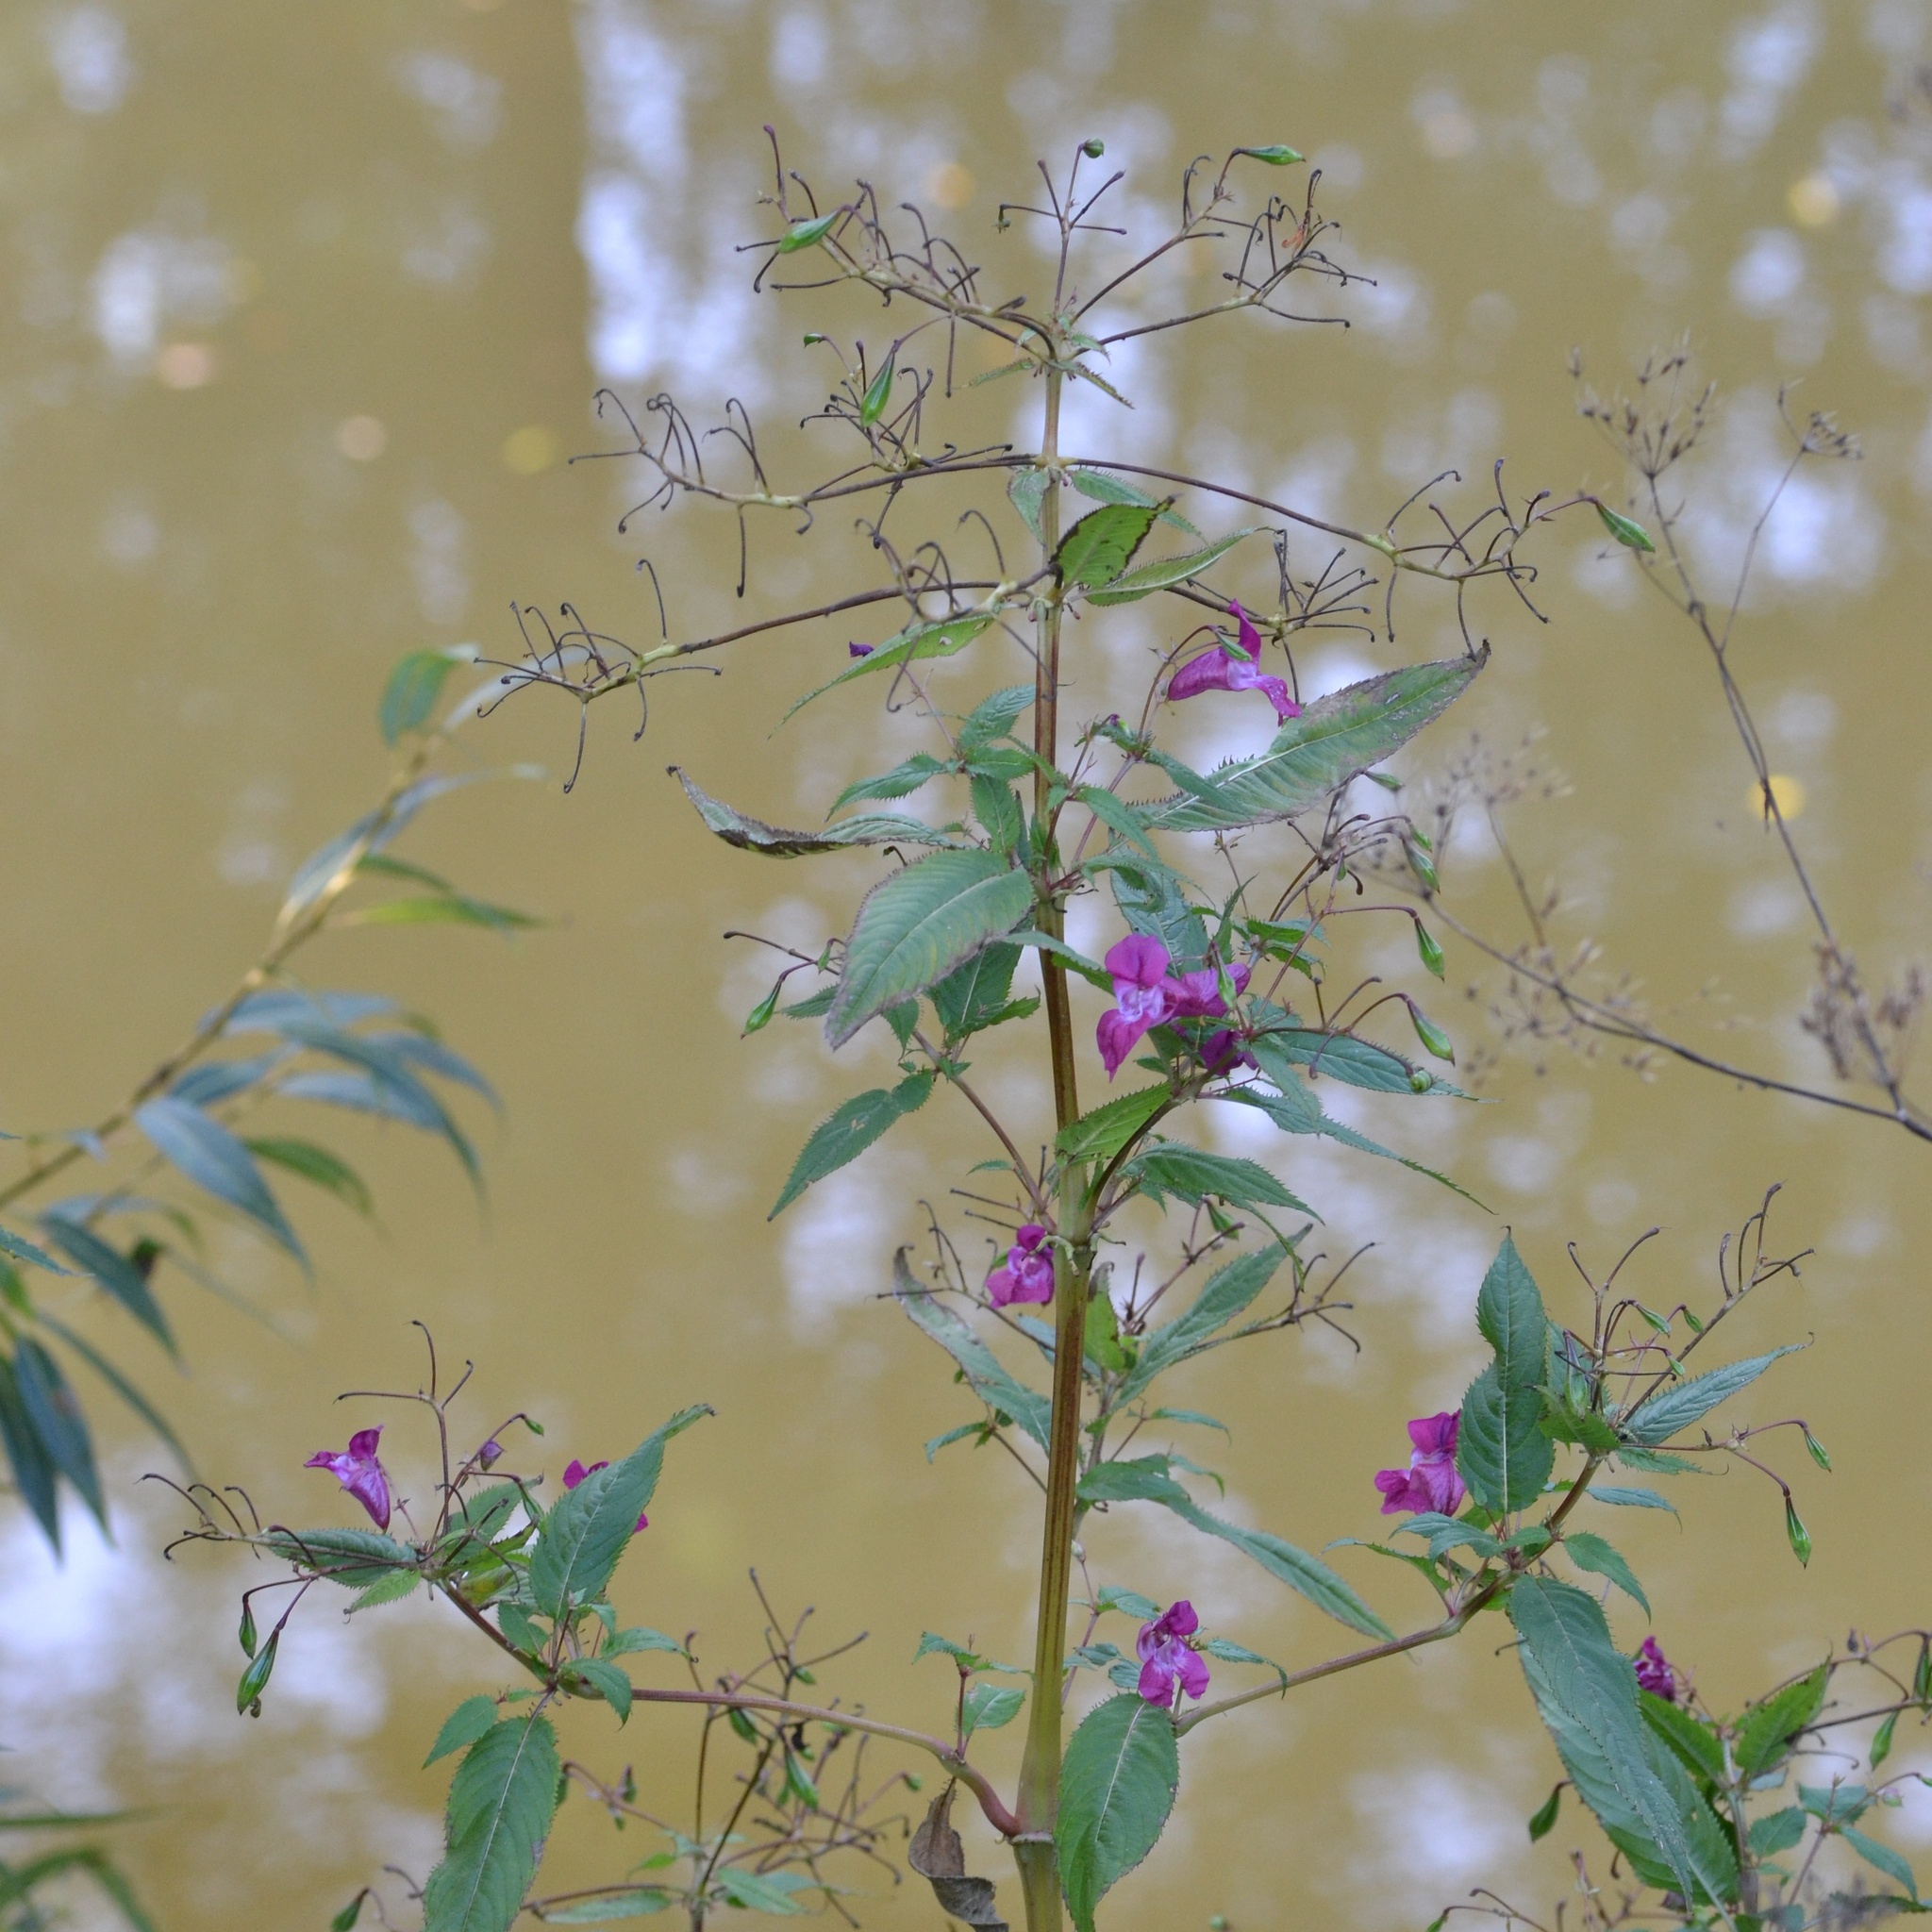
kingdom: Plantae
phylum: Tracheophyta
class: Magnoliopsida
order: Ericales
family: Balsaminaceae
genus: Impatiens
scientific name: Impatiens glandulifera
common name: Himalayan balsam
